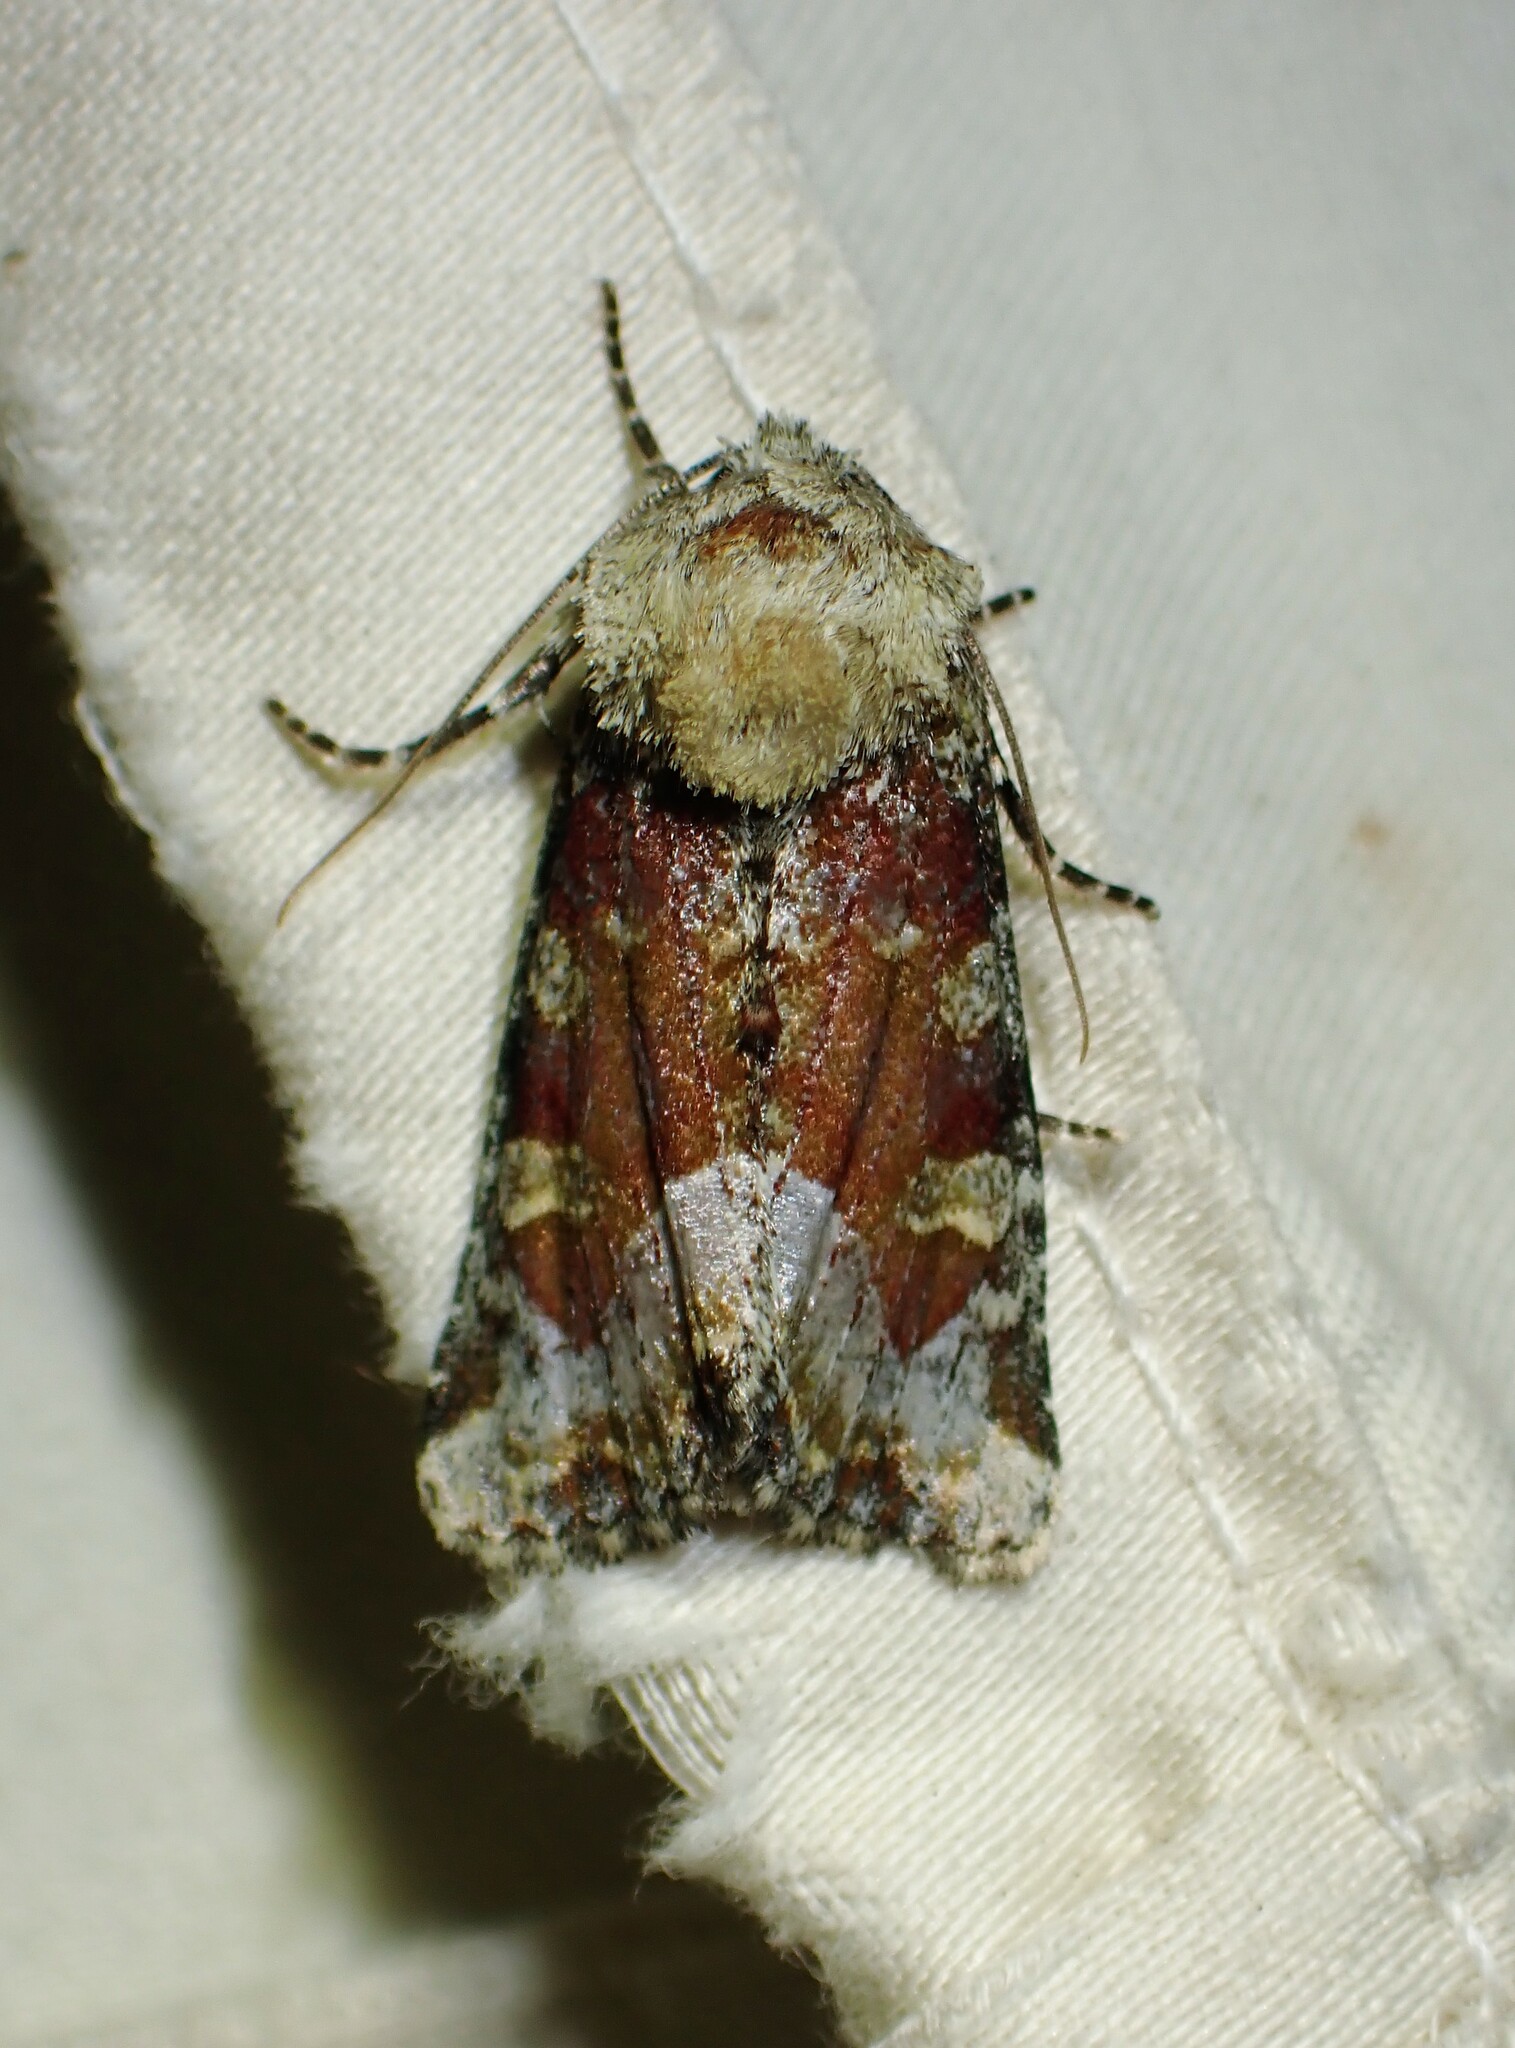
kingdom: Animalia
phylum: Arthropoda
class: Insecta
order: Lepidoptera
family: Noctuidae
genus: Oligia
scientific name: Oligia bridghamii
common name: Bridgham's brocade moth
